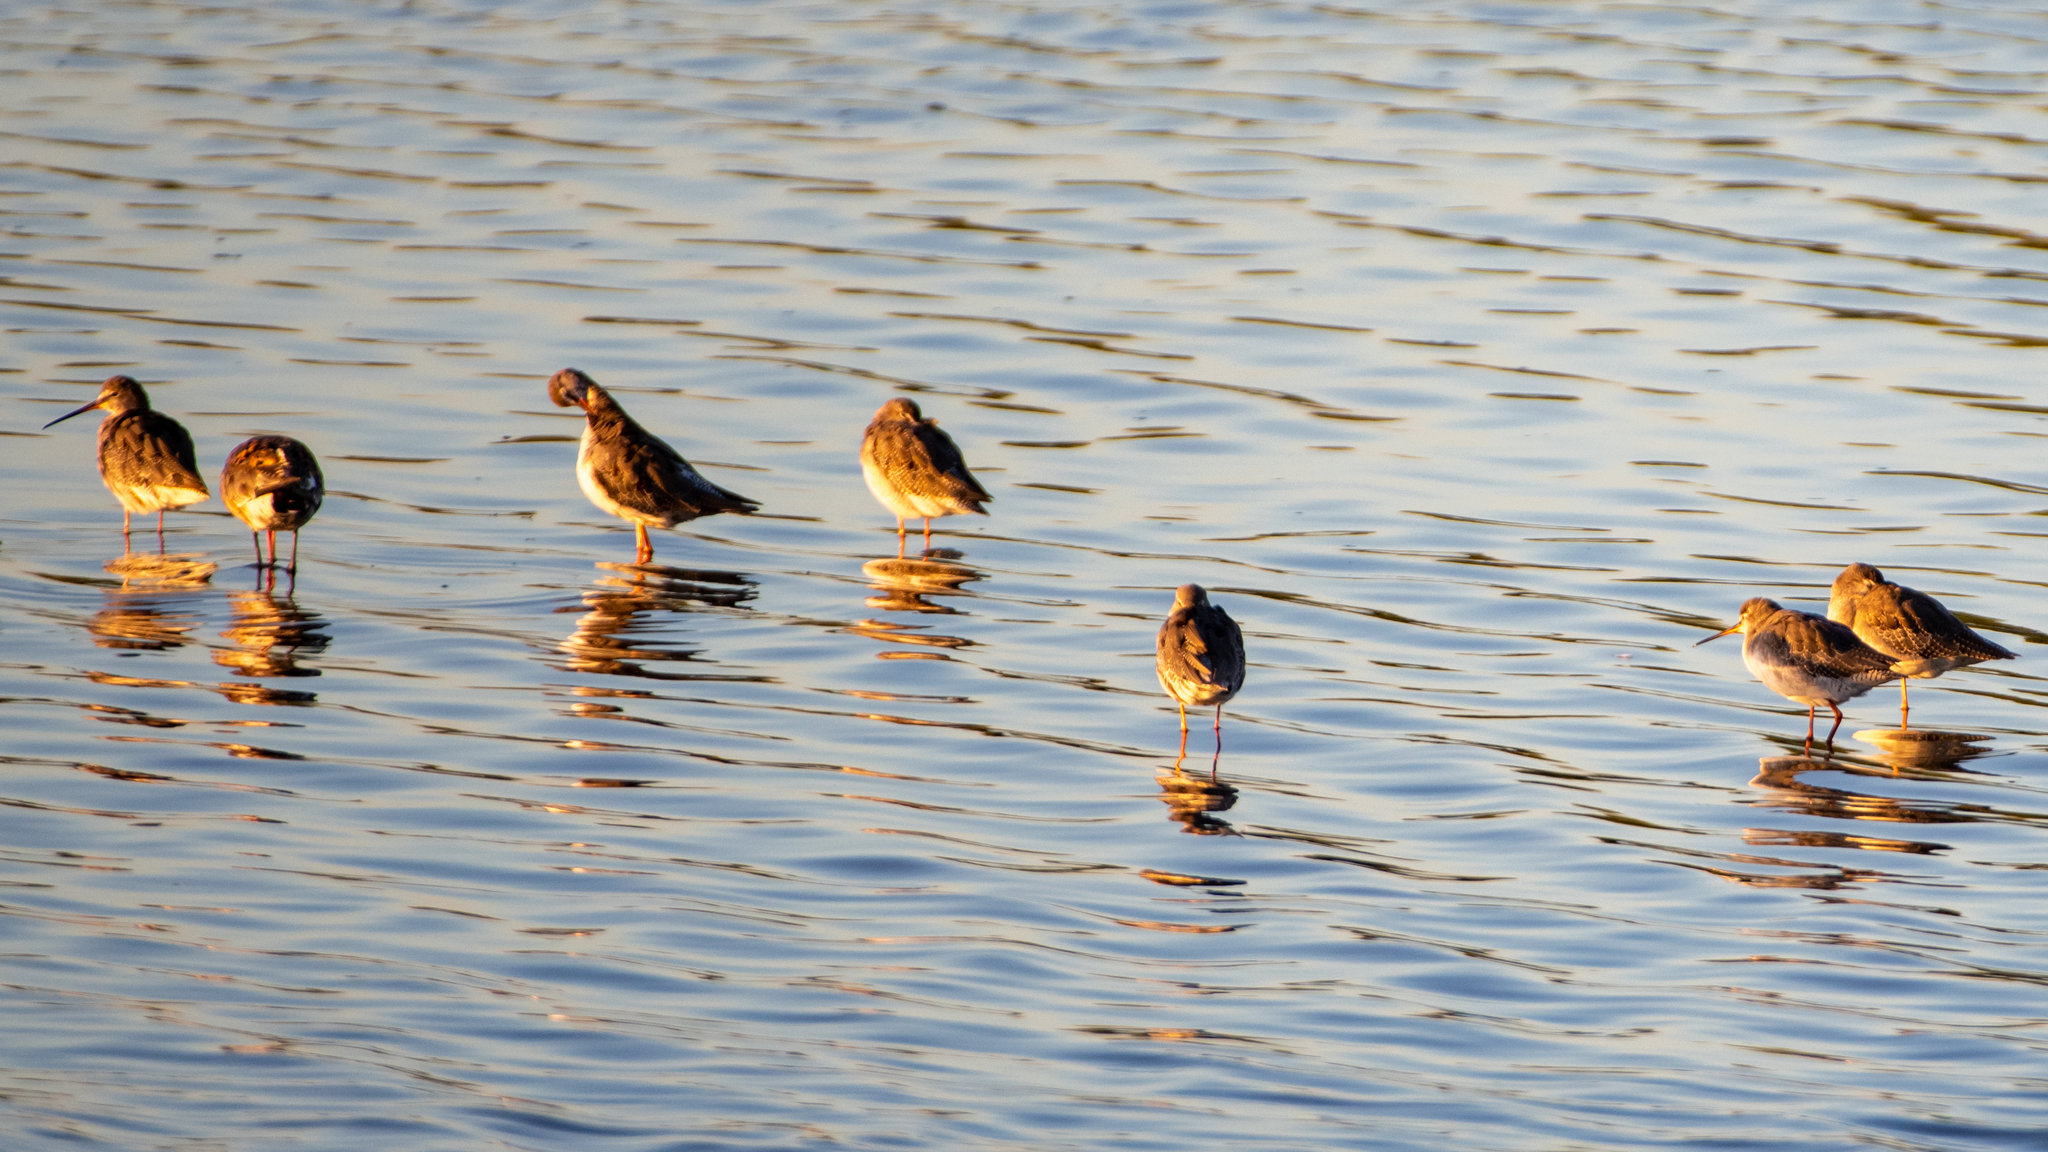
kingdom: Animalia
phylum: Chordata
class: Aves
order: Charadriiformes
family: Scolopacidae
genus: Tringa
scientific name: Tringa erythropus
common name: Spotted redshank
